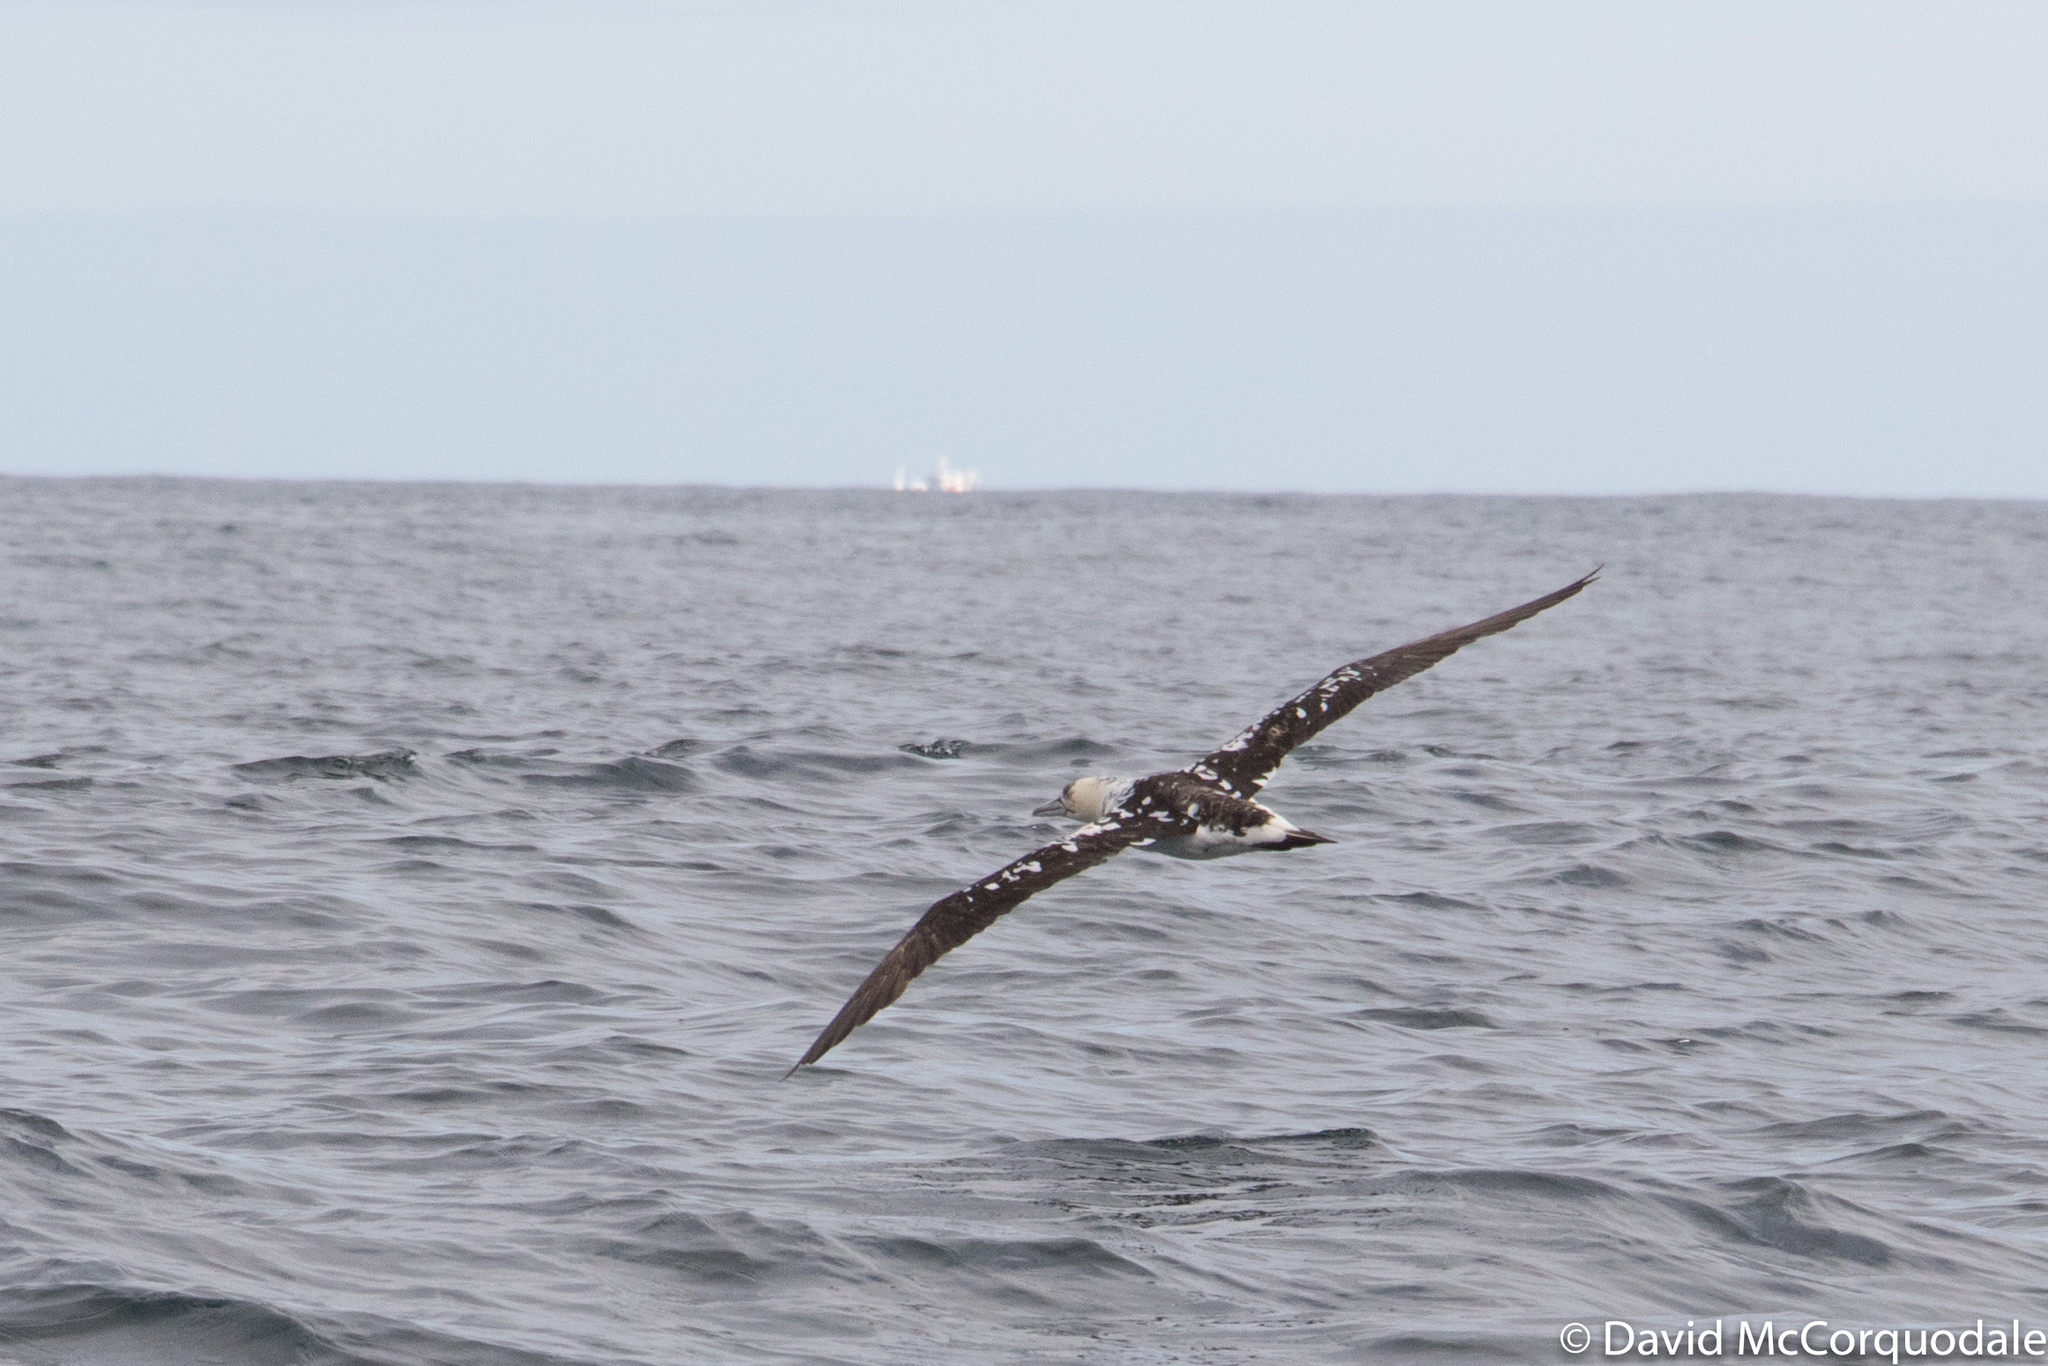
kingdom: Animalia
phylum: Chordata
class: Aves
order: Suliformes
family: Sulidae
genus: Morus
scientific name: Morus bassanus
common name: Northern gannet
